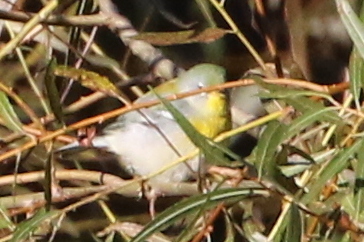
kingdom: Animalia
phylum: Chordata
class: Aves
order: Passeriformes
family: Parulidae
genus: Setophaga
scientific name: Setophaga americana
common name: Northern parula
